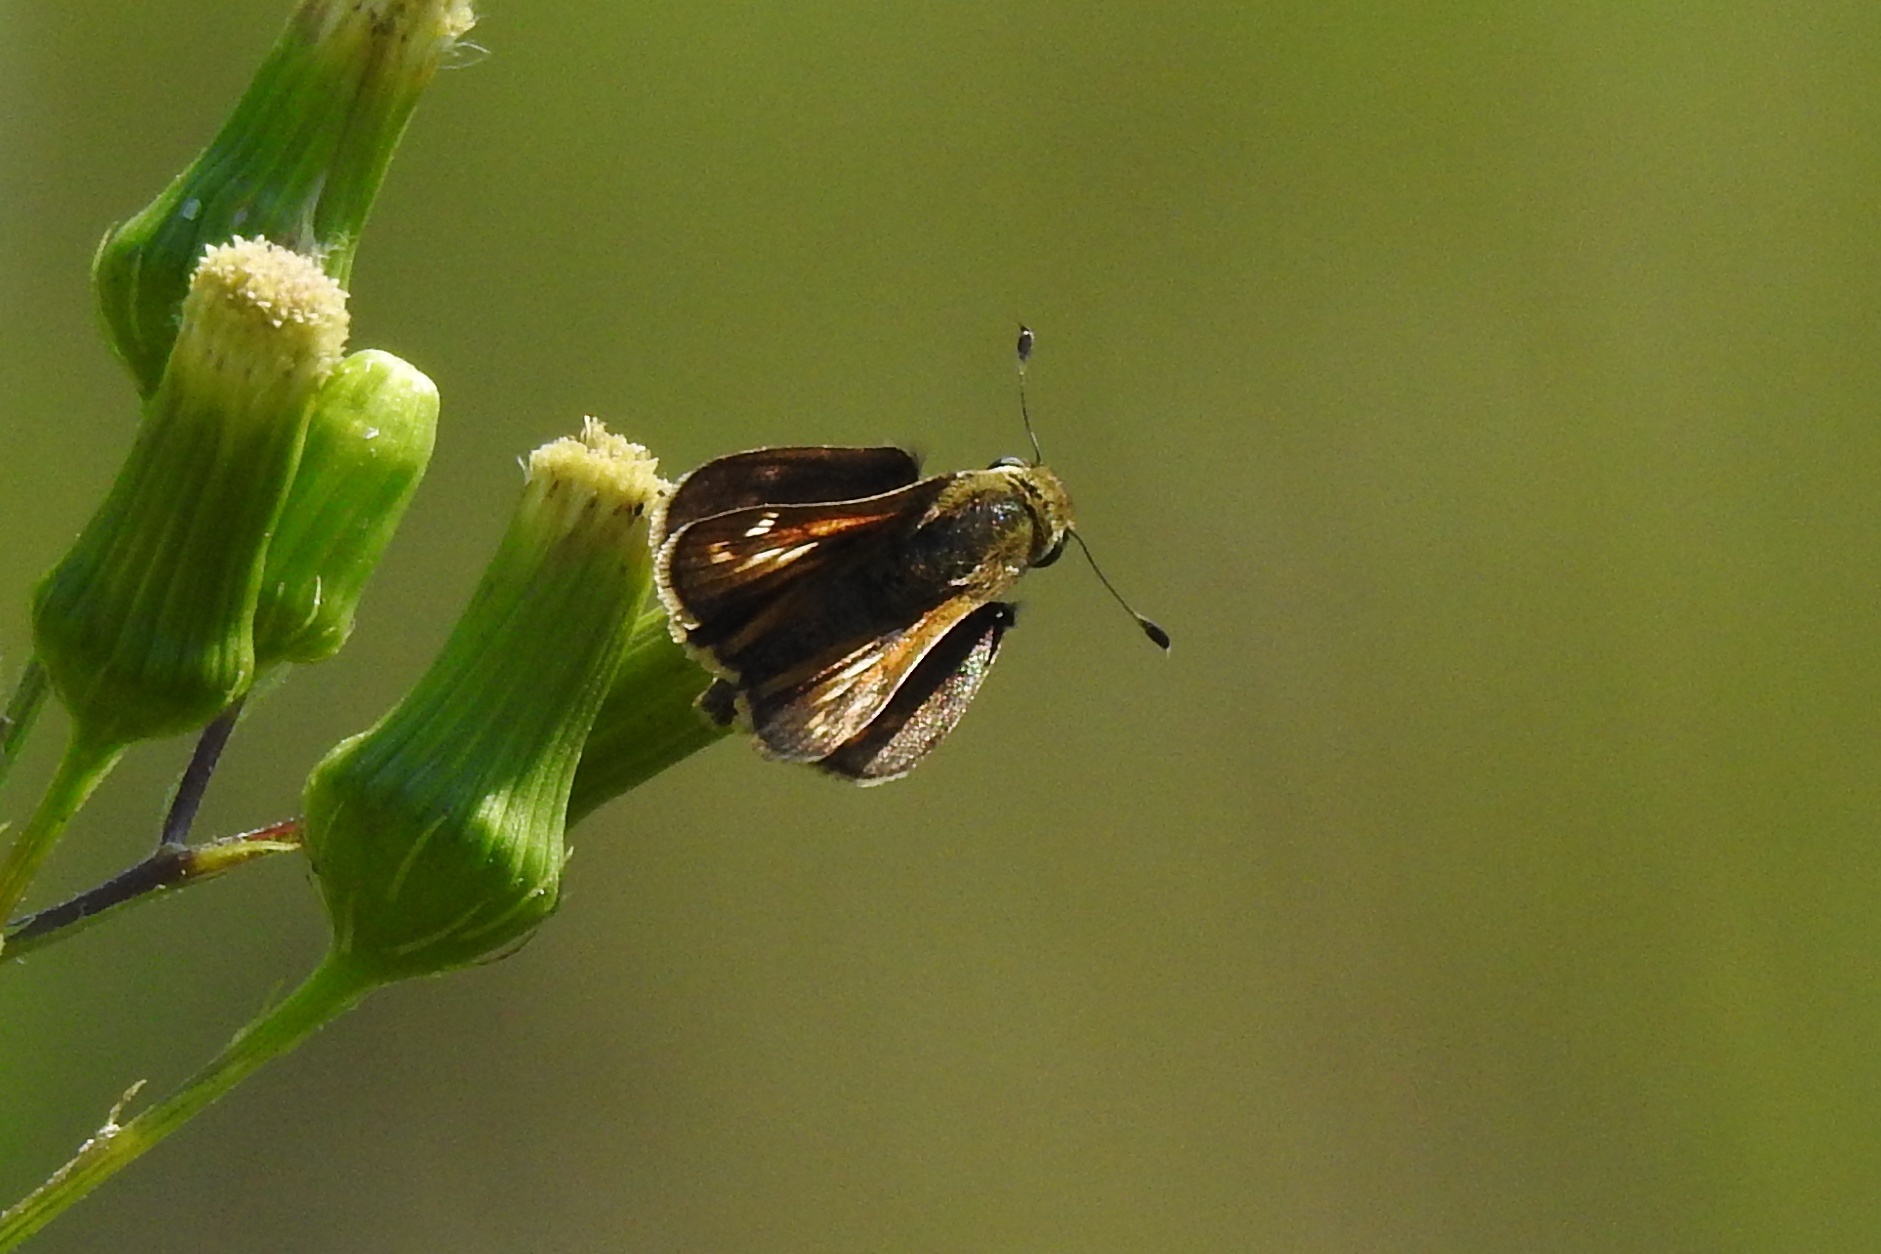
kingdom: Animalia
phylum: Arthropoda
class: Insecta
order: Lepidoptera
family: Hesperiidae
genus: Atalopedes
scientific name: Atalopedes
